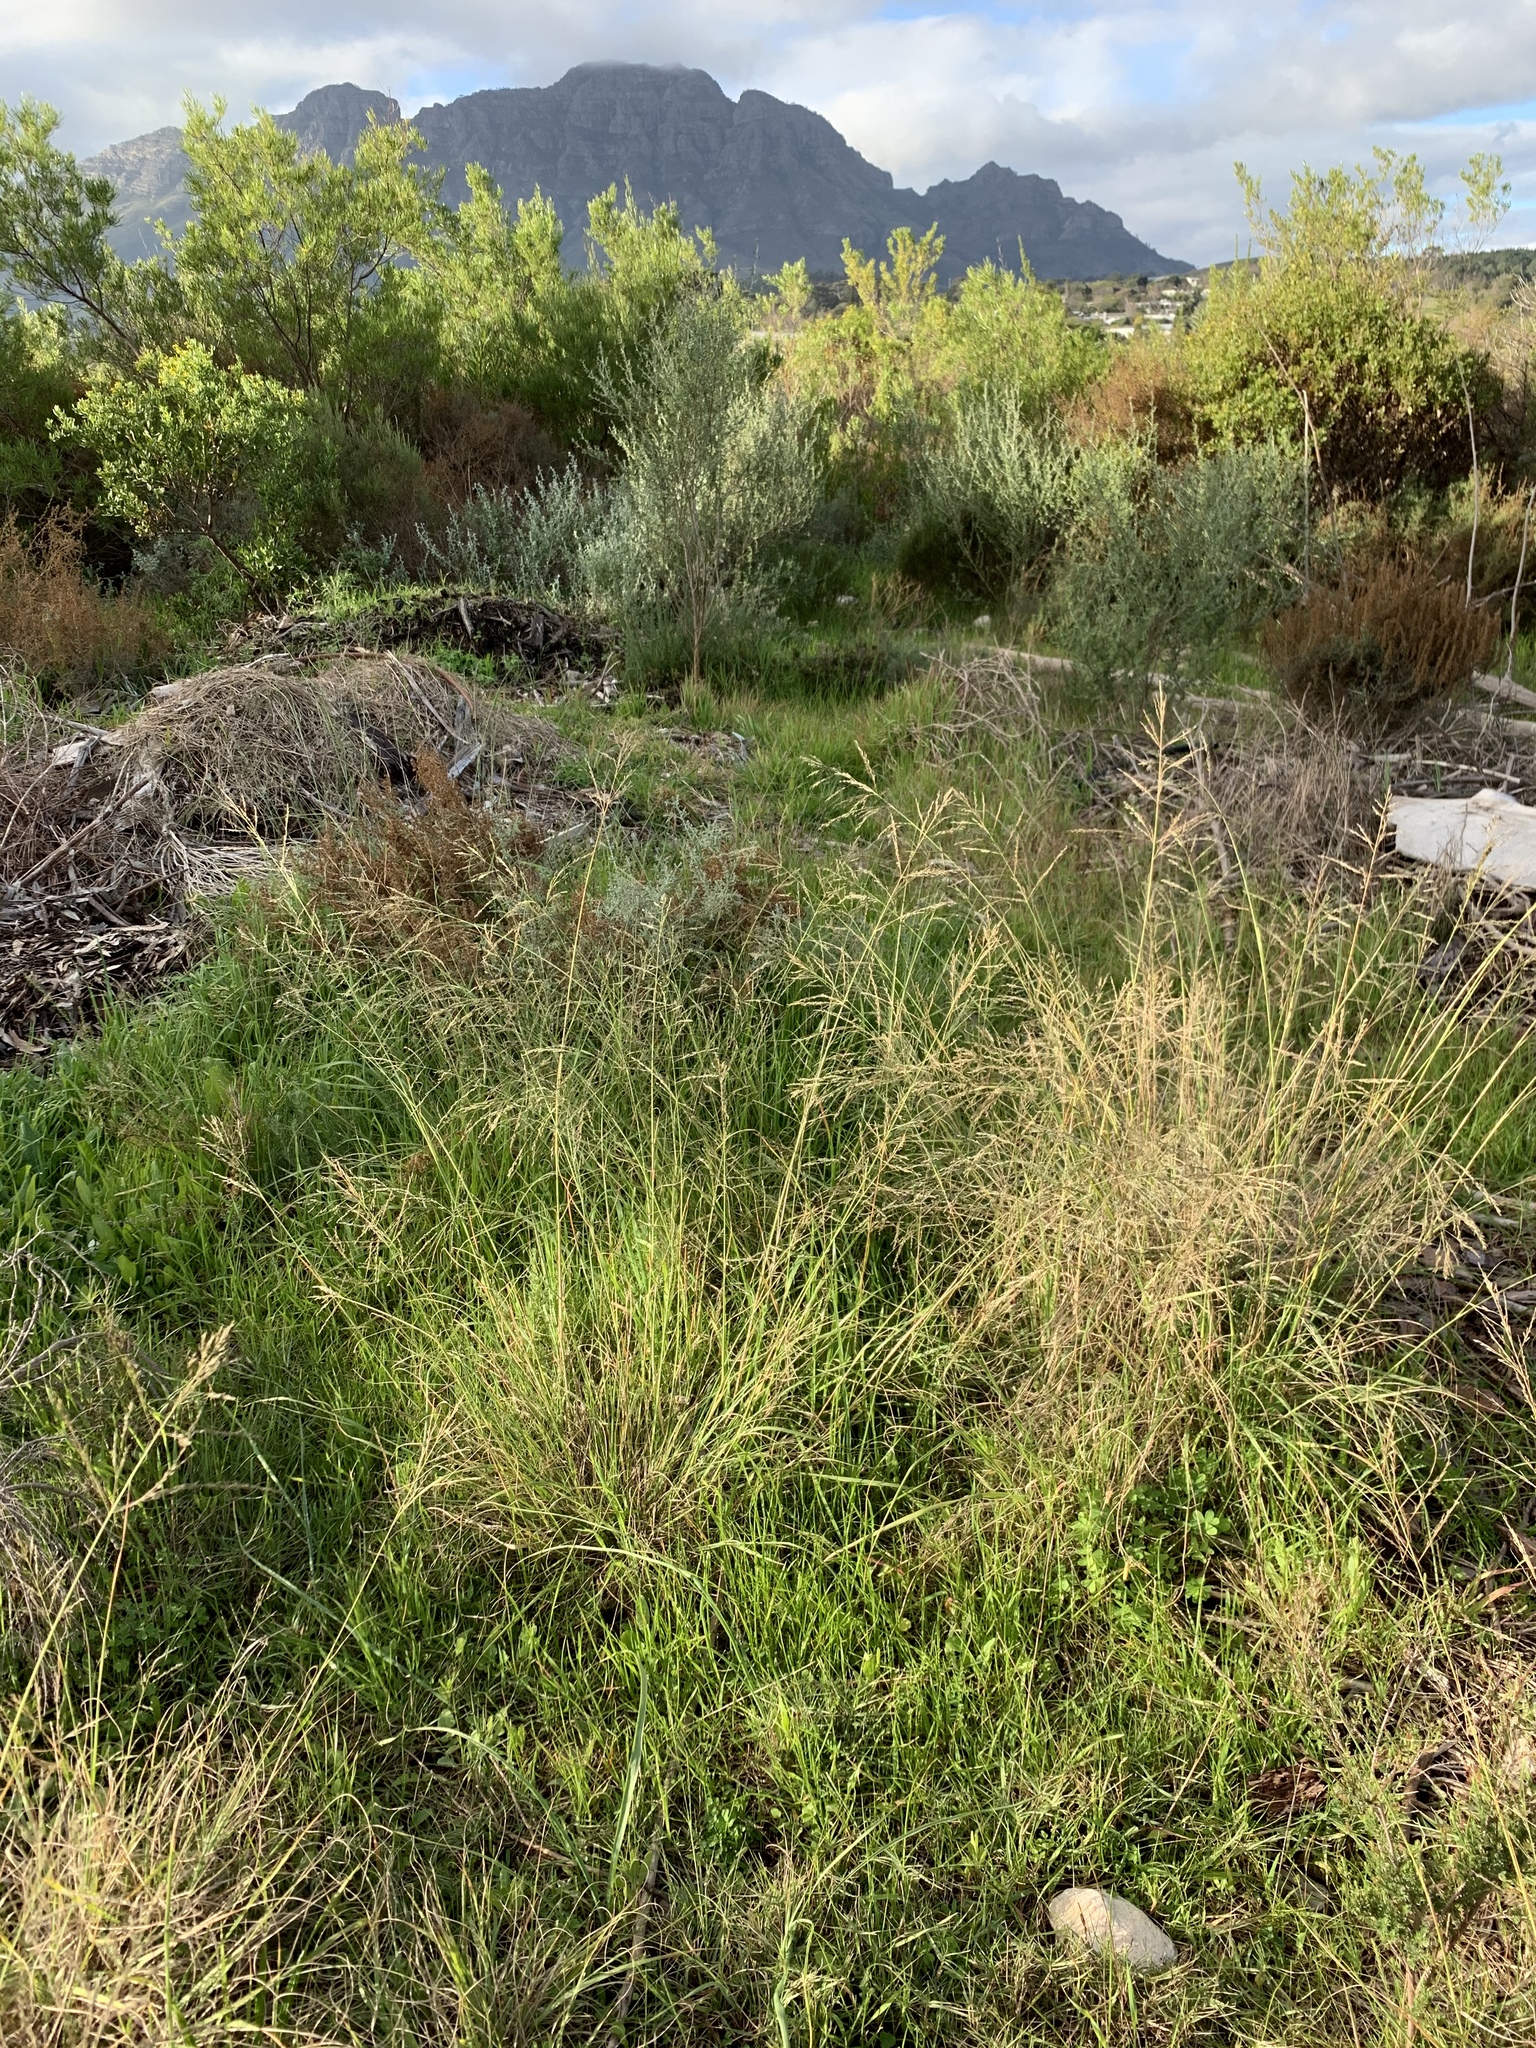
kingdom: Plantae
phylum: Tracheophyta
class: Liliopsida
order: Poales
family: Poaceae
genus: Eragrostis
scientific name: Eragrostis curvula
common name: African love-grass
